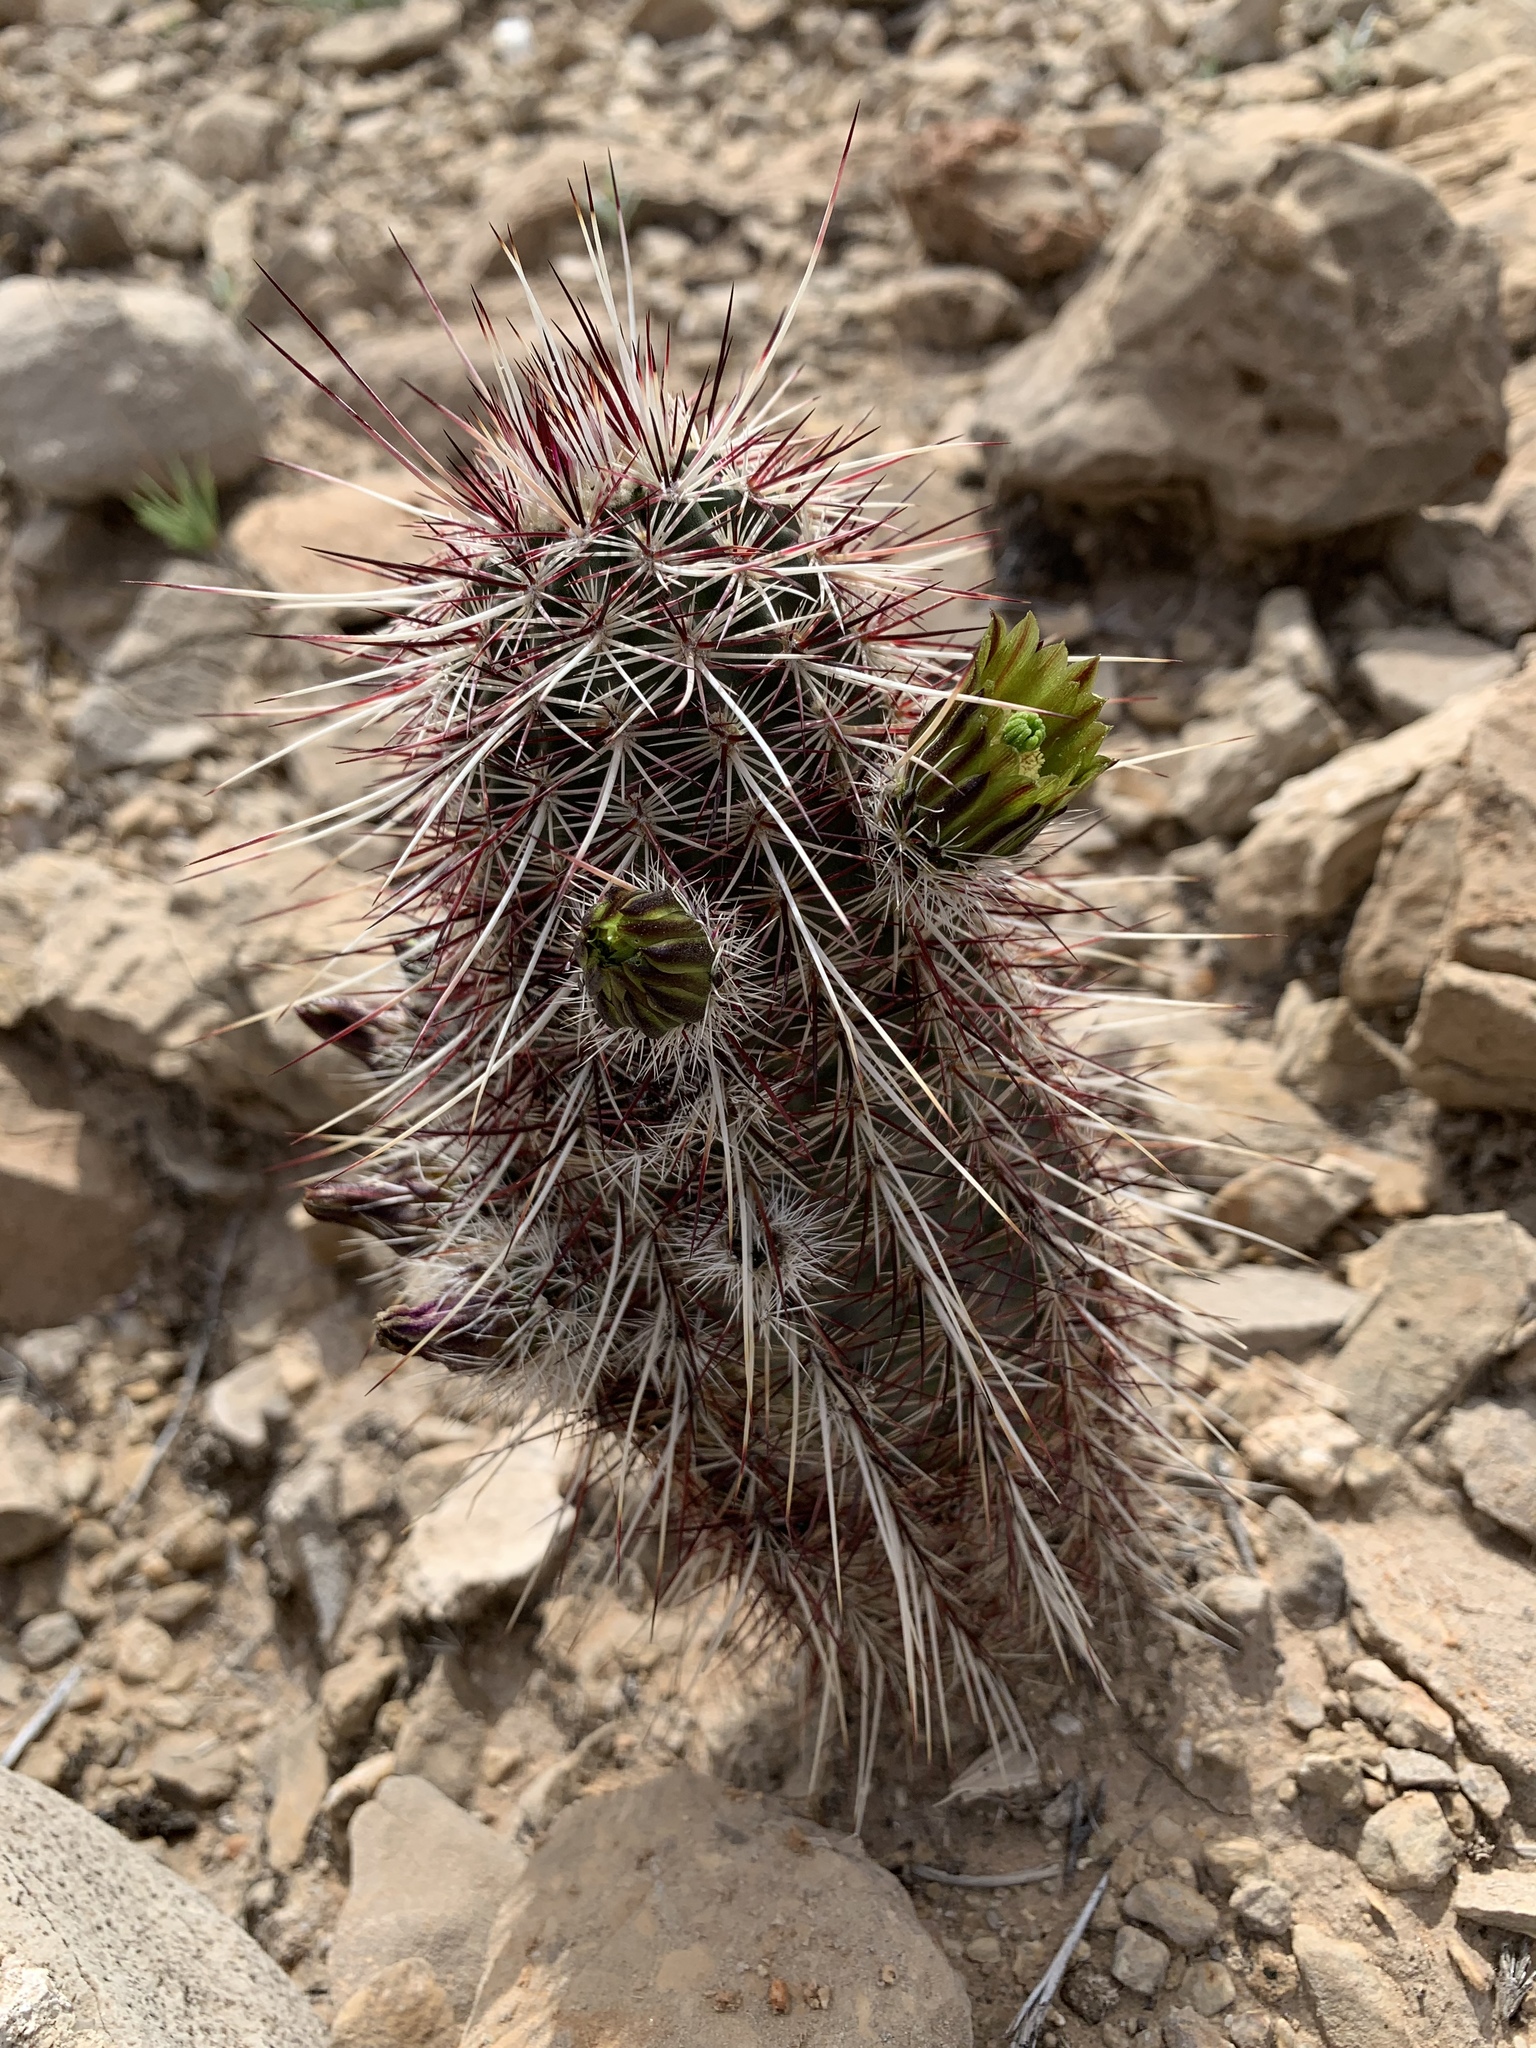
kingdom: Plantae
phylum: Tracheophyta
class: Magnoliopsida
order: Caryophyllales
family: Cactaceae
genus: Echinocereus
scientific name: Echinocereus viridiflorus
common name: Nylon hedgehog cactus
